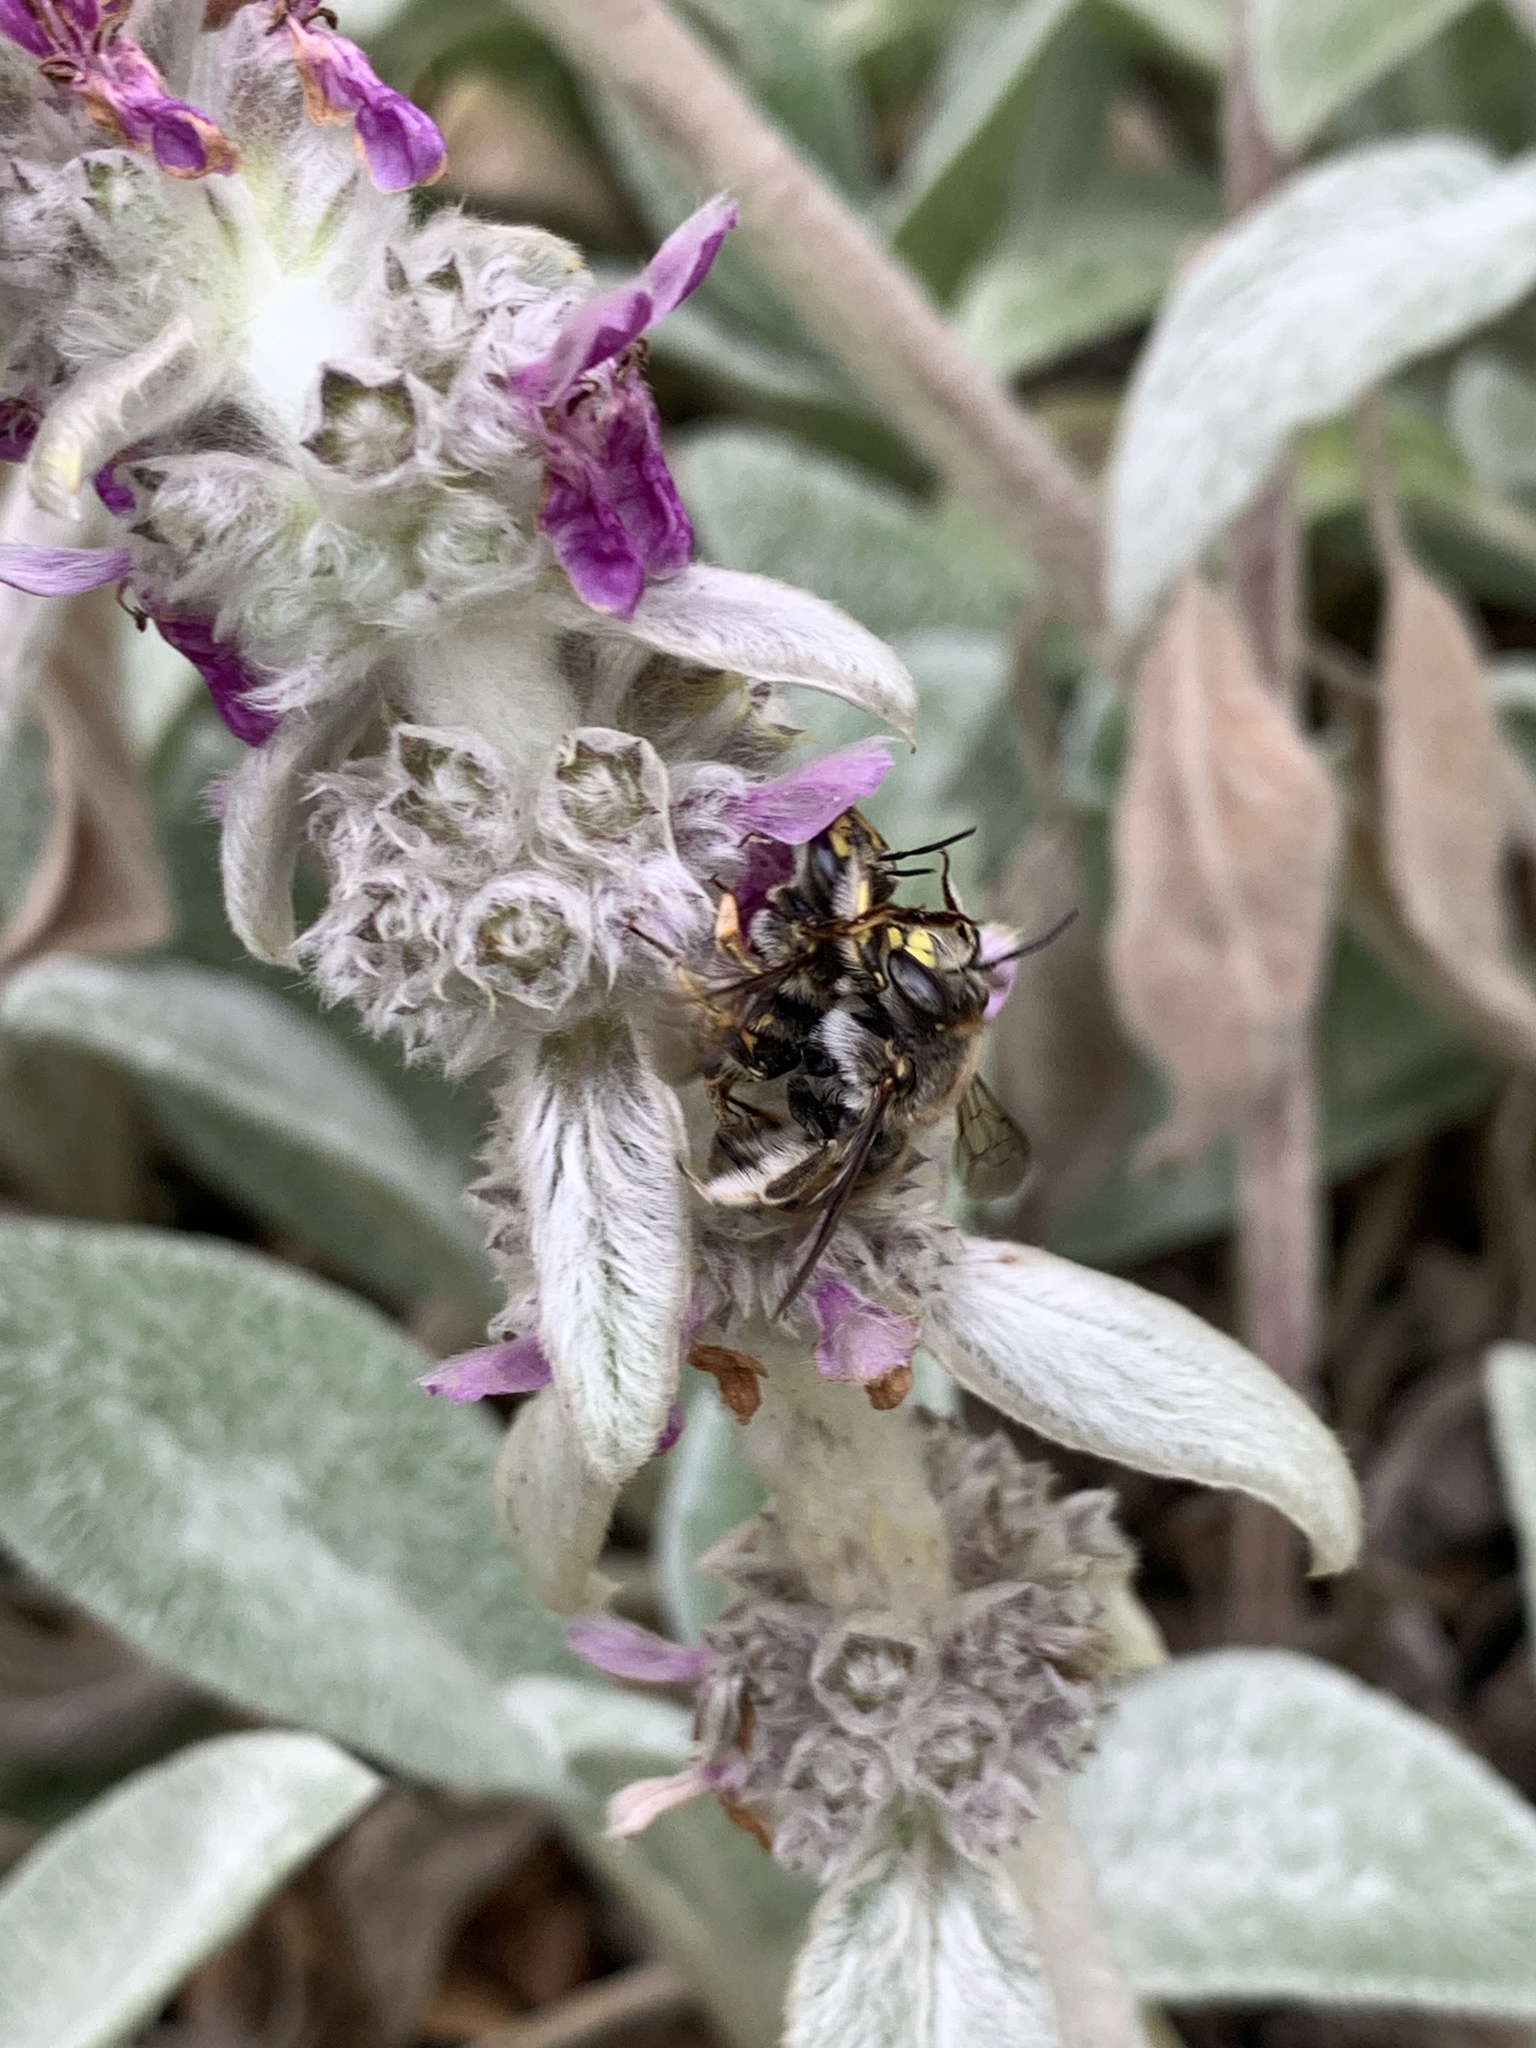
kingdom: Animalia
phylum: Arthropoda
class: Insecta
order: Hymenoptera
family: Megachilidae
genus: Anthidium
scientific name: Anthidium manicatum
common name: Wool carder bee
